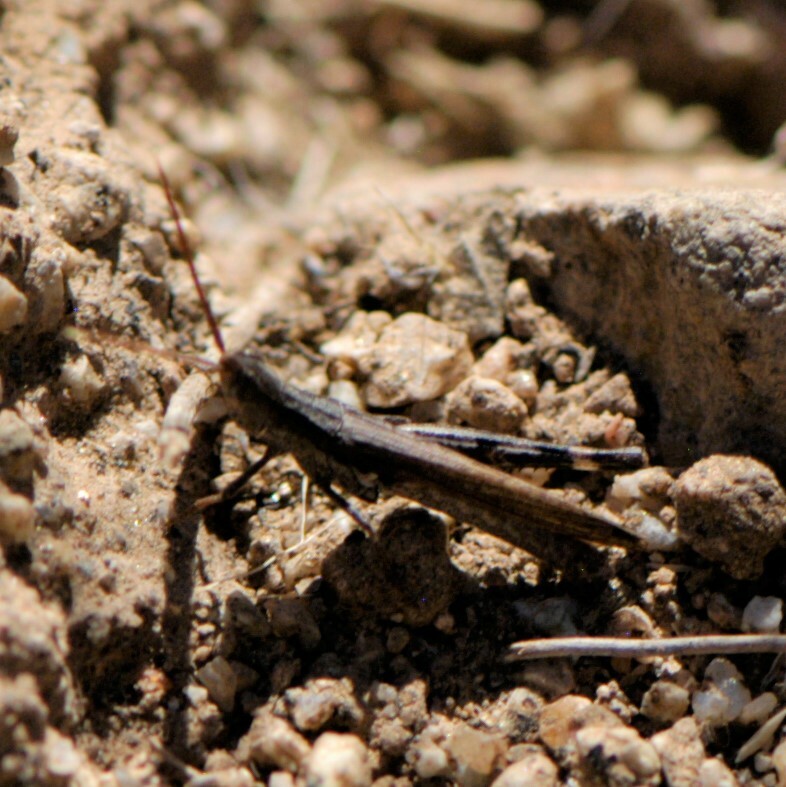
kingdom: Animalia
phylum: Arthropoda
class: Insecta
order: Orthoptera
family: Acrididae
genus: Acantherus
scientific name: Acantherus piperatus
